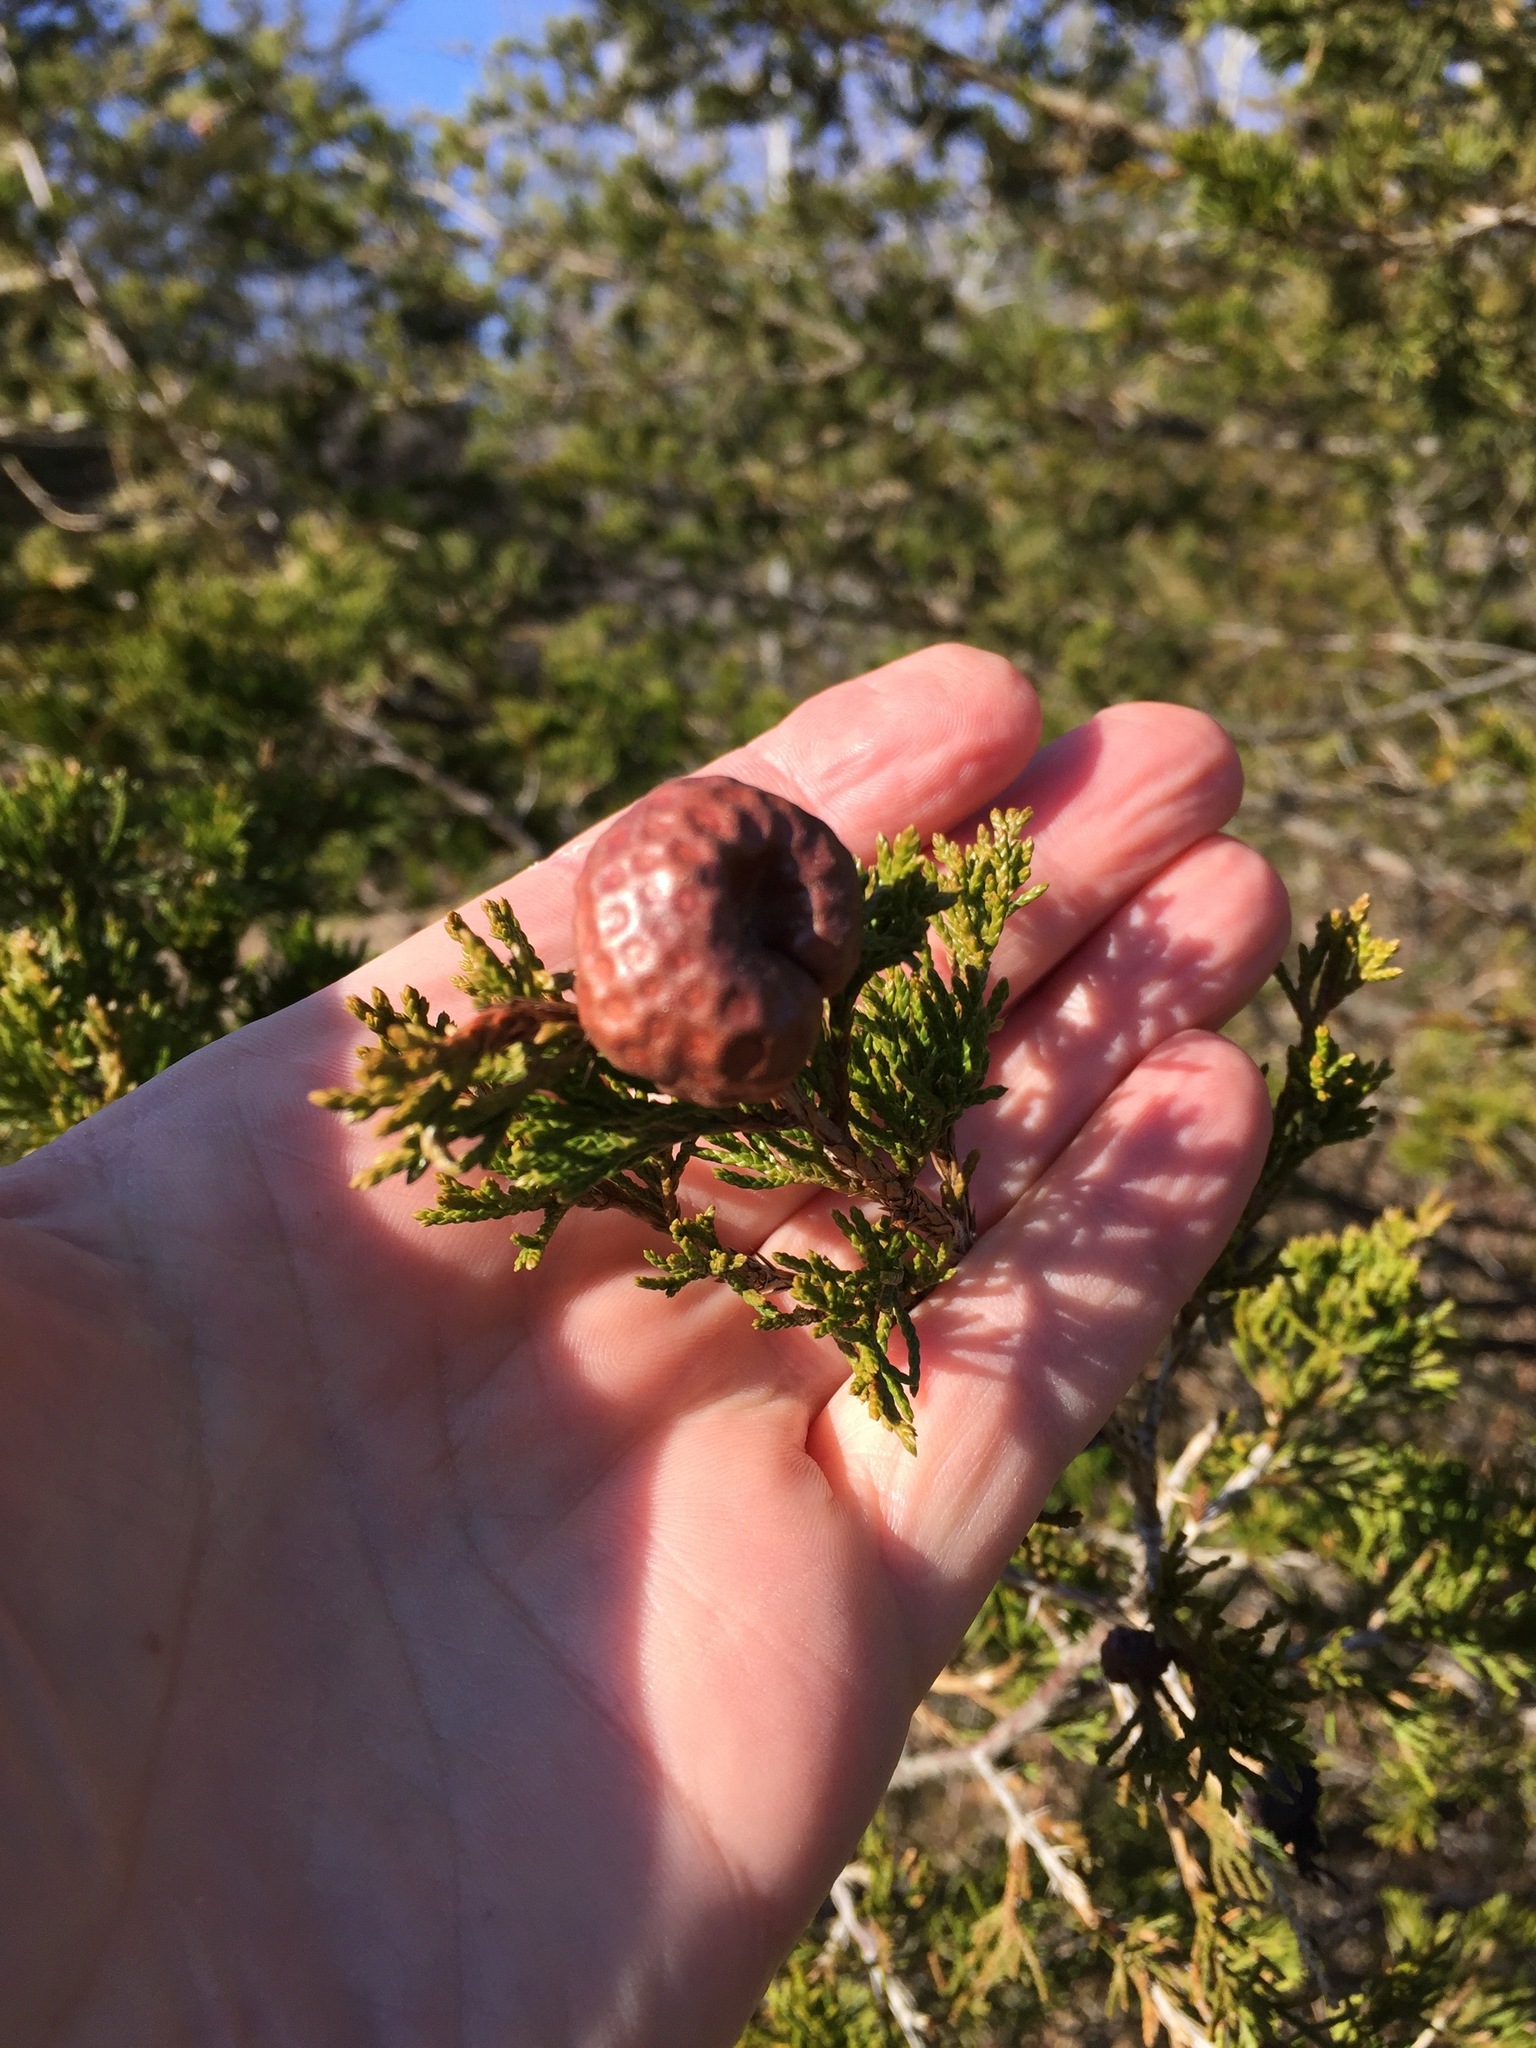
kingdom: Plantae
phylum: Tracheophyta
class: Pinopsida
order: Pinales
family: Cupressaceae
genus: Juniperus
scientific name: Juniperus virginiana
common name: Red juniper
